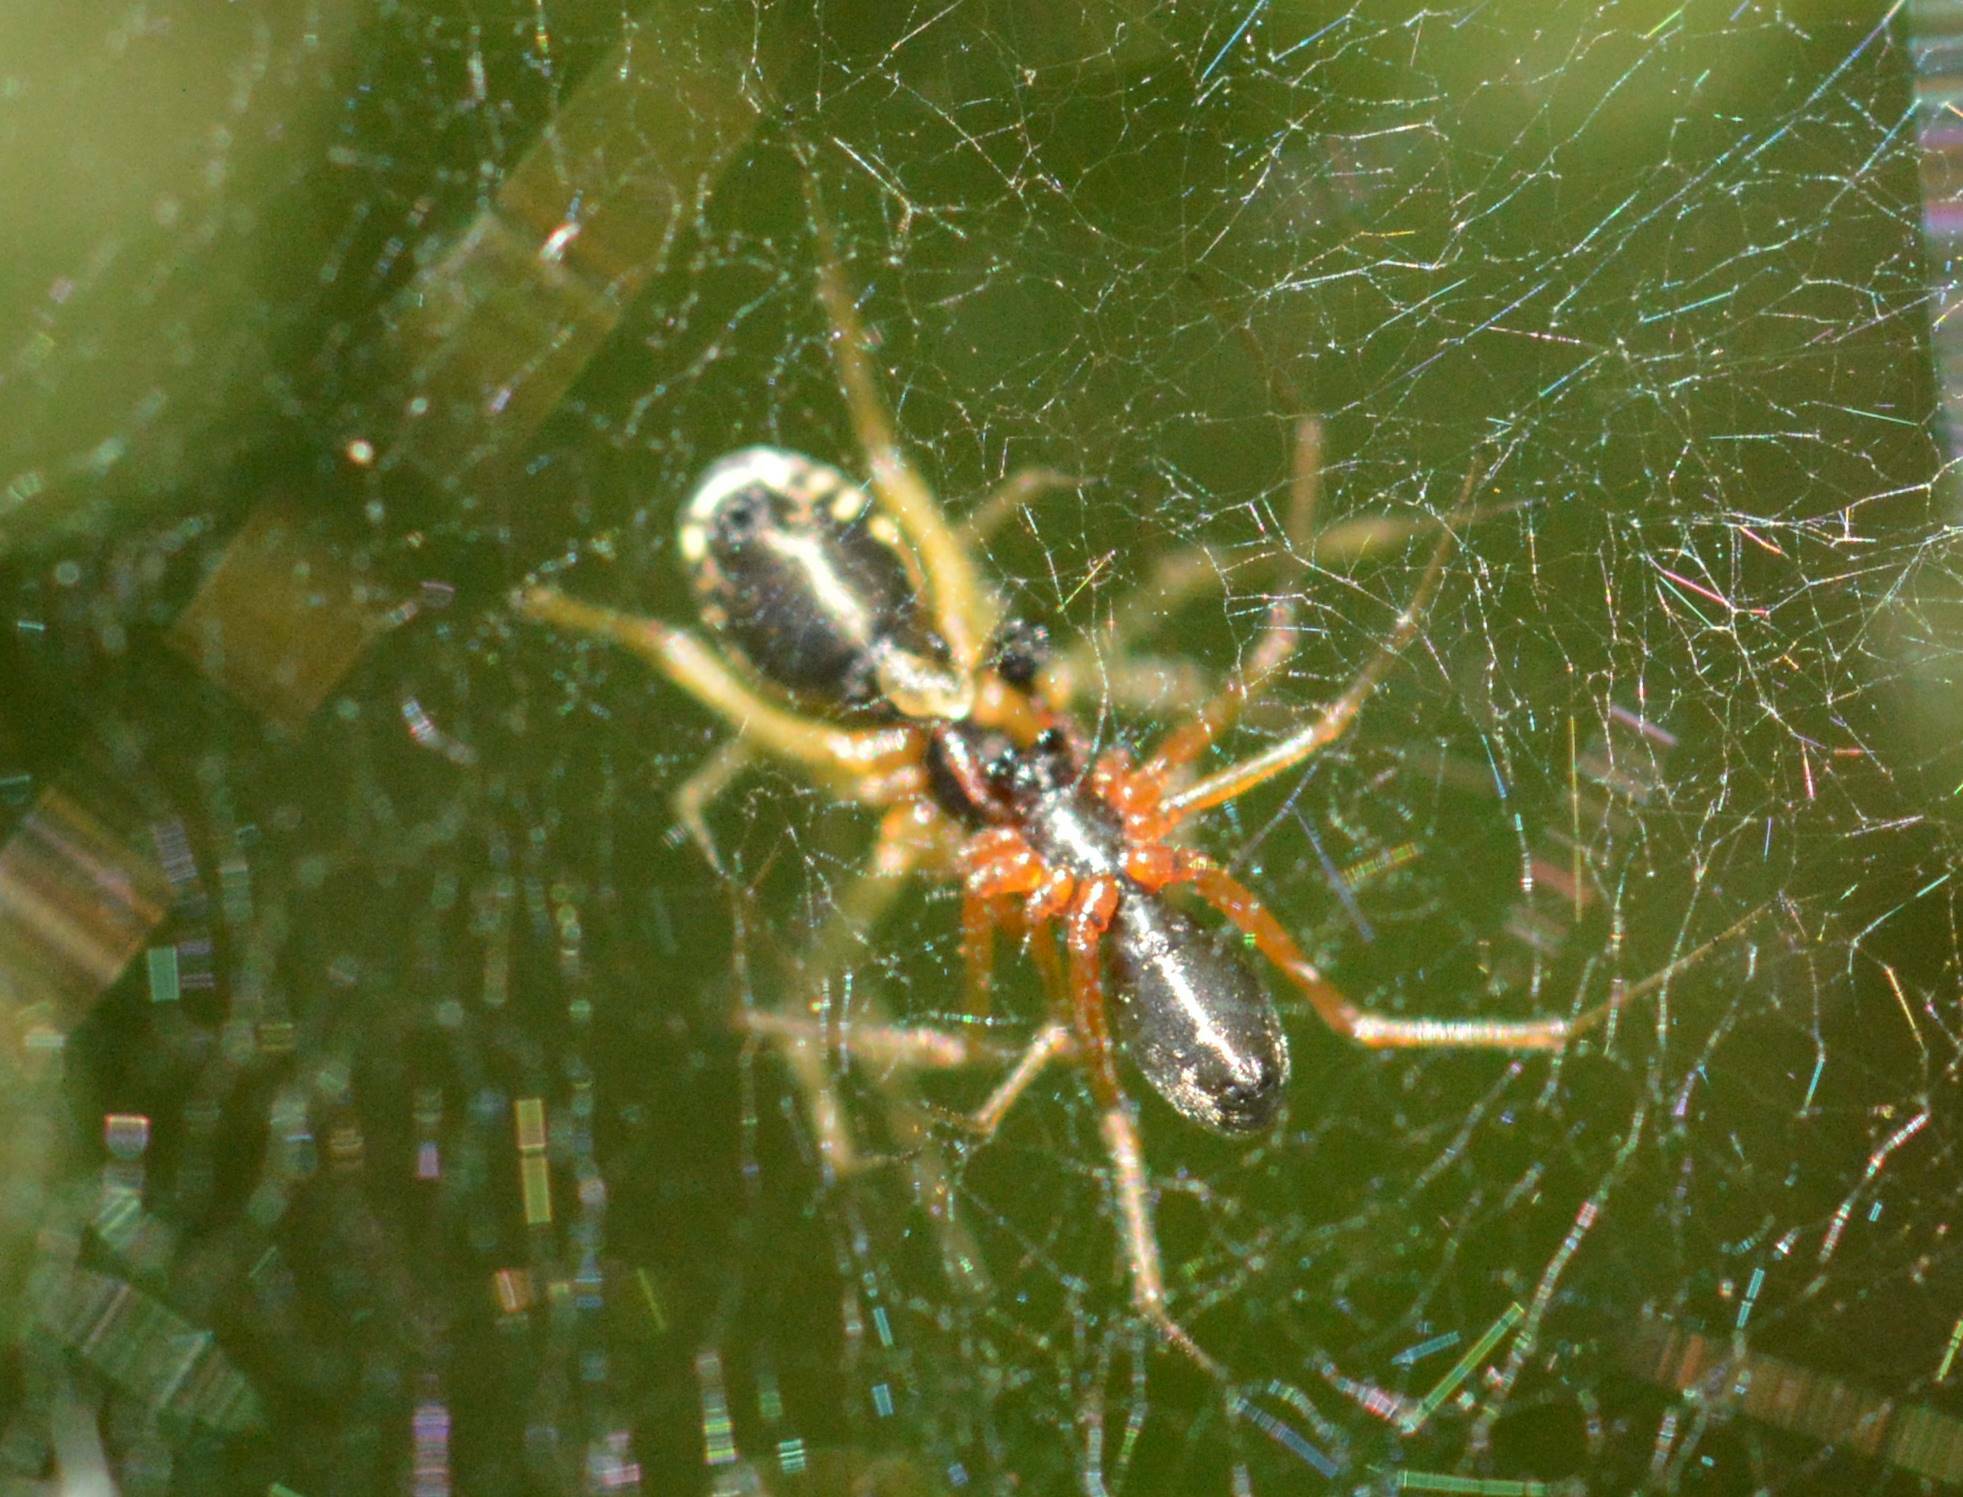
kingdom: Animalia
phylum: Arthropoda
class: Arachnida
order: Araneae
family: Linyphiidae
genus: Frontinellina
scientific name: Frontinellina frutetorum
